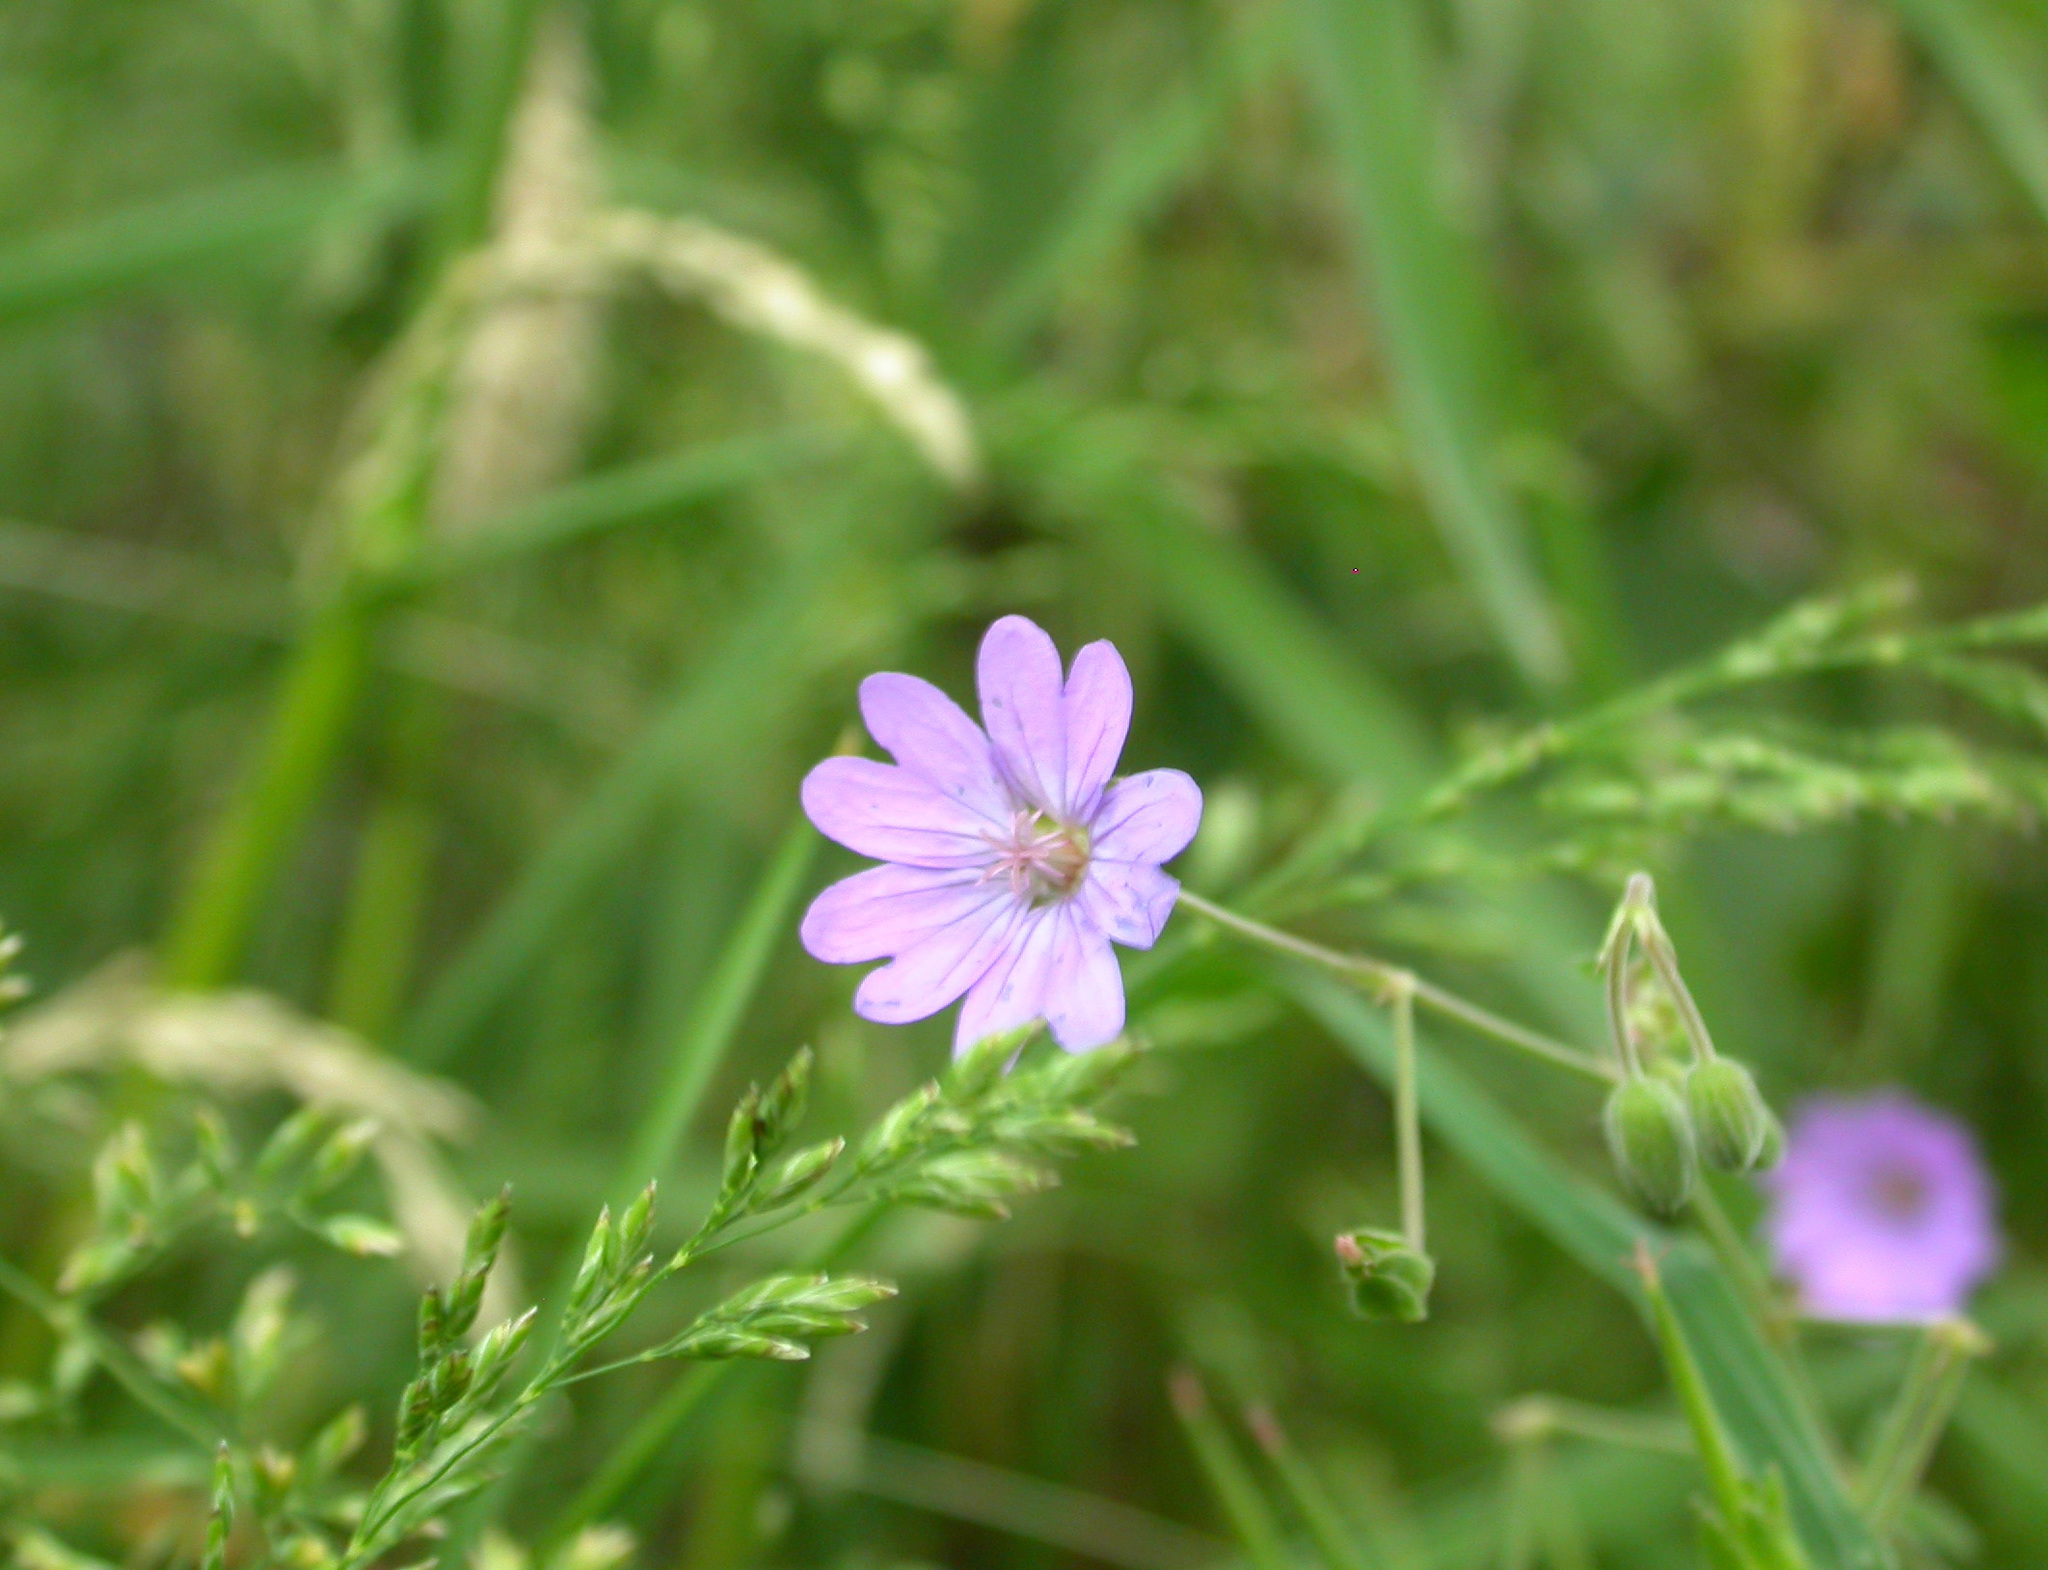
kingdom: Plantae
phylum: Tracheophyta
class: Magnoliopsida
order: Geraniales
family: Geraniaceae
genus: Geranium
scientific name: Geranium pyrenaicum
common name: Hedgerow crane's-bill
